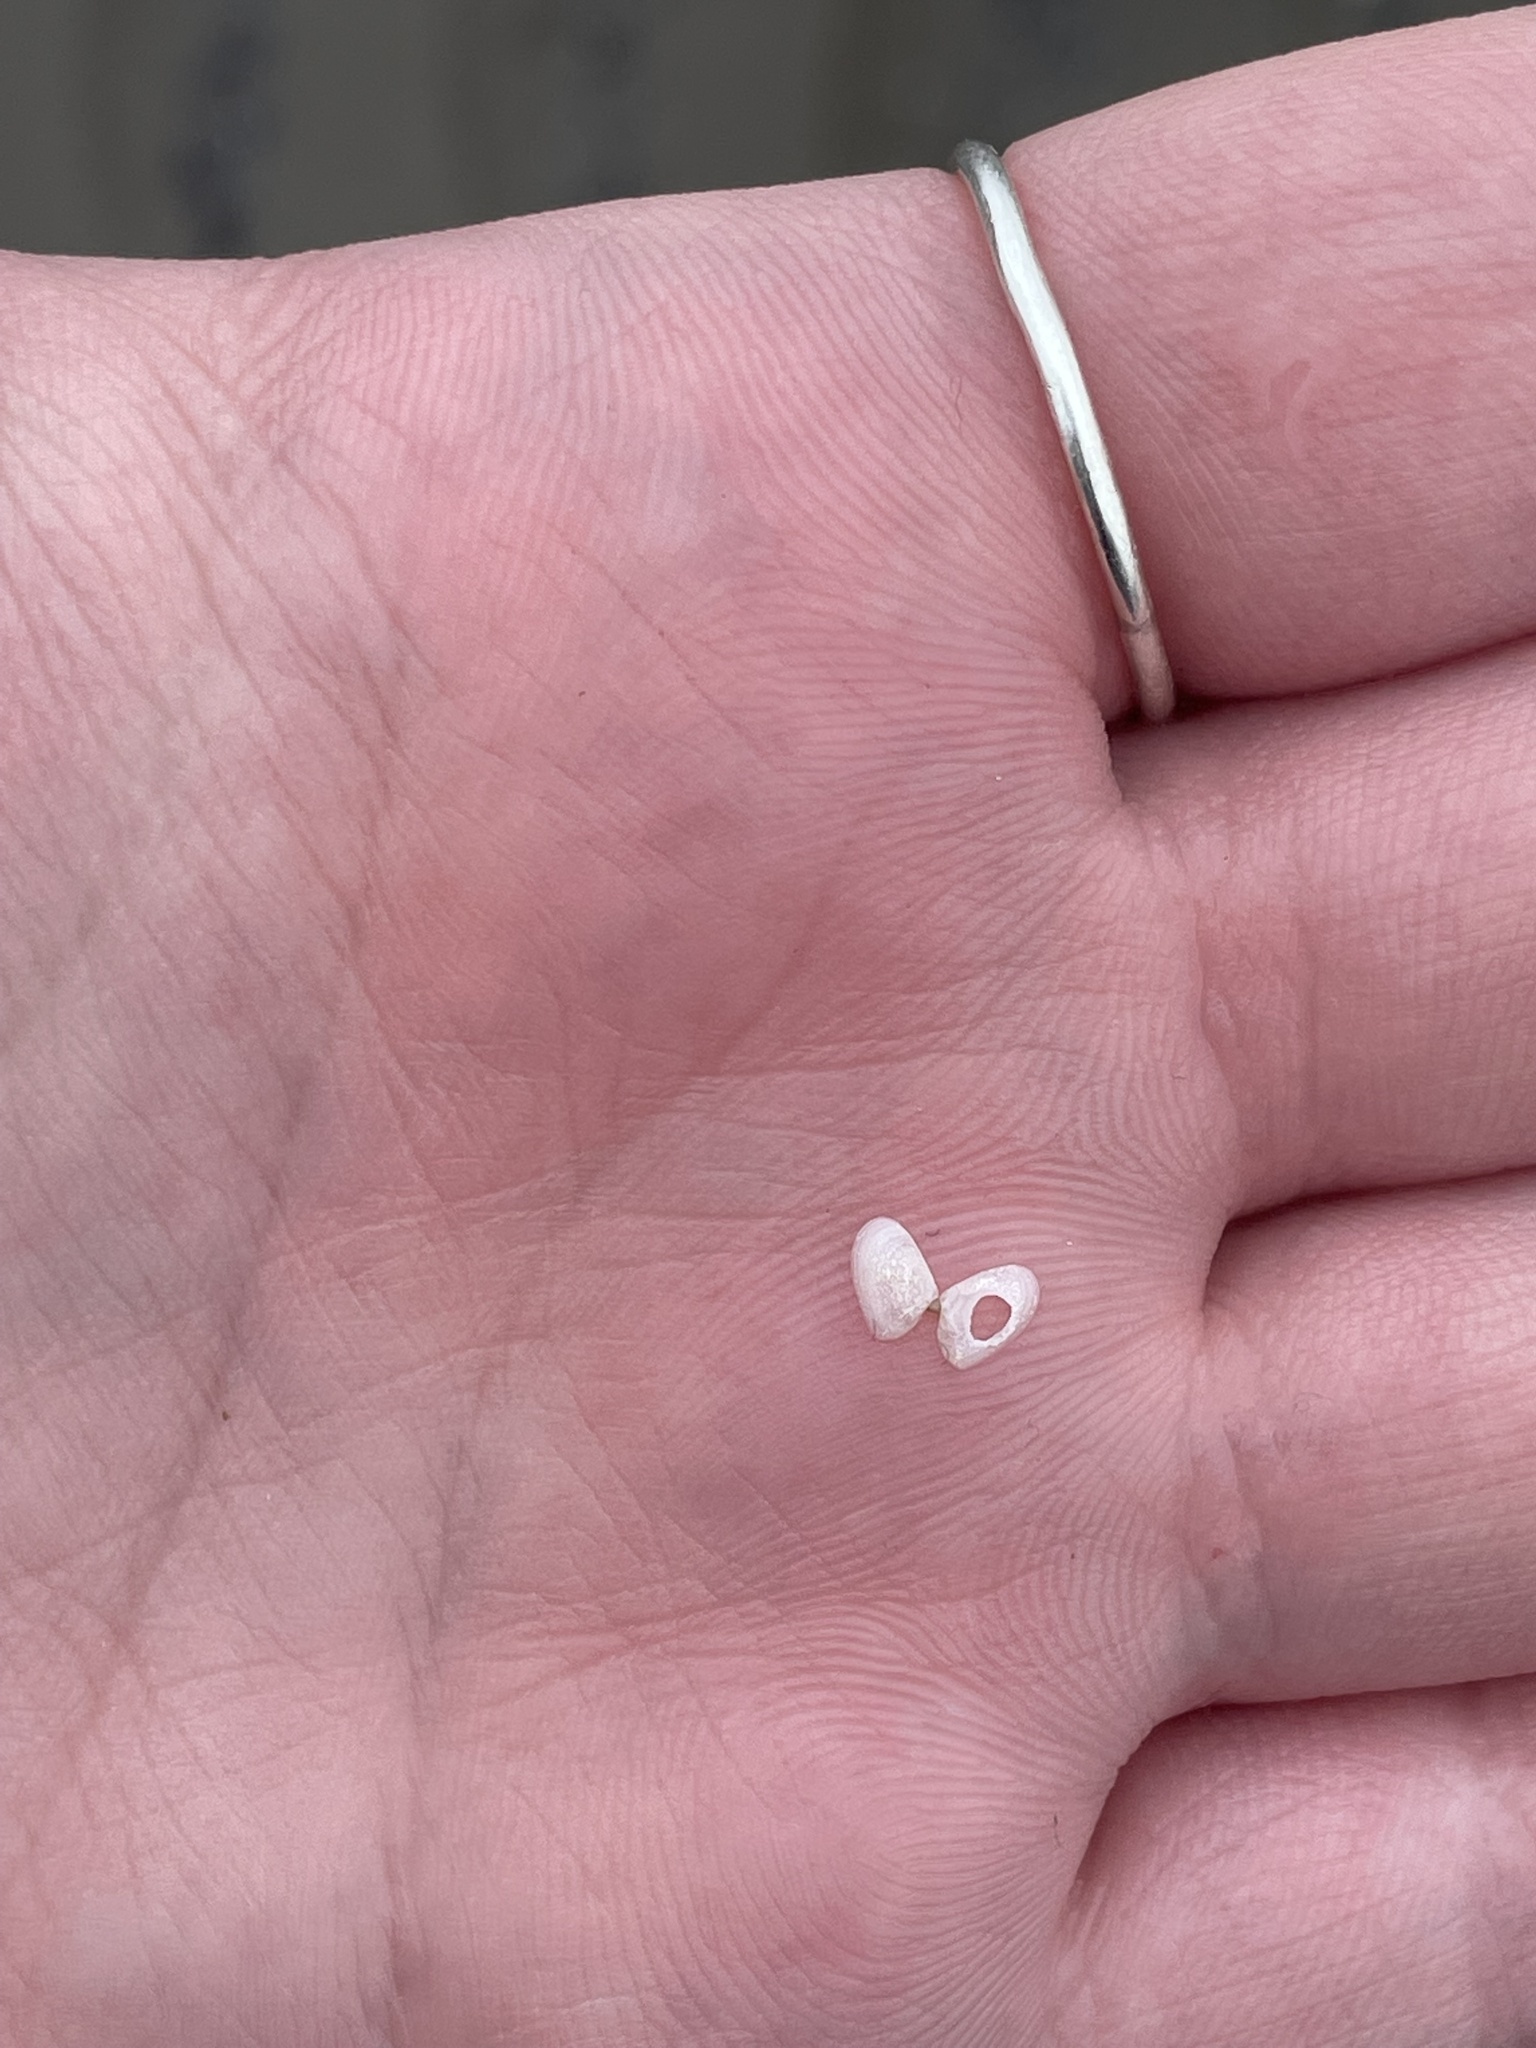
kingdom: Animalia
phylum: Mollusca
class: Bivalvia
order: Cardiida
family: Tellinidae
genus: Ameritella
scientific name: Ameritella agilis
